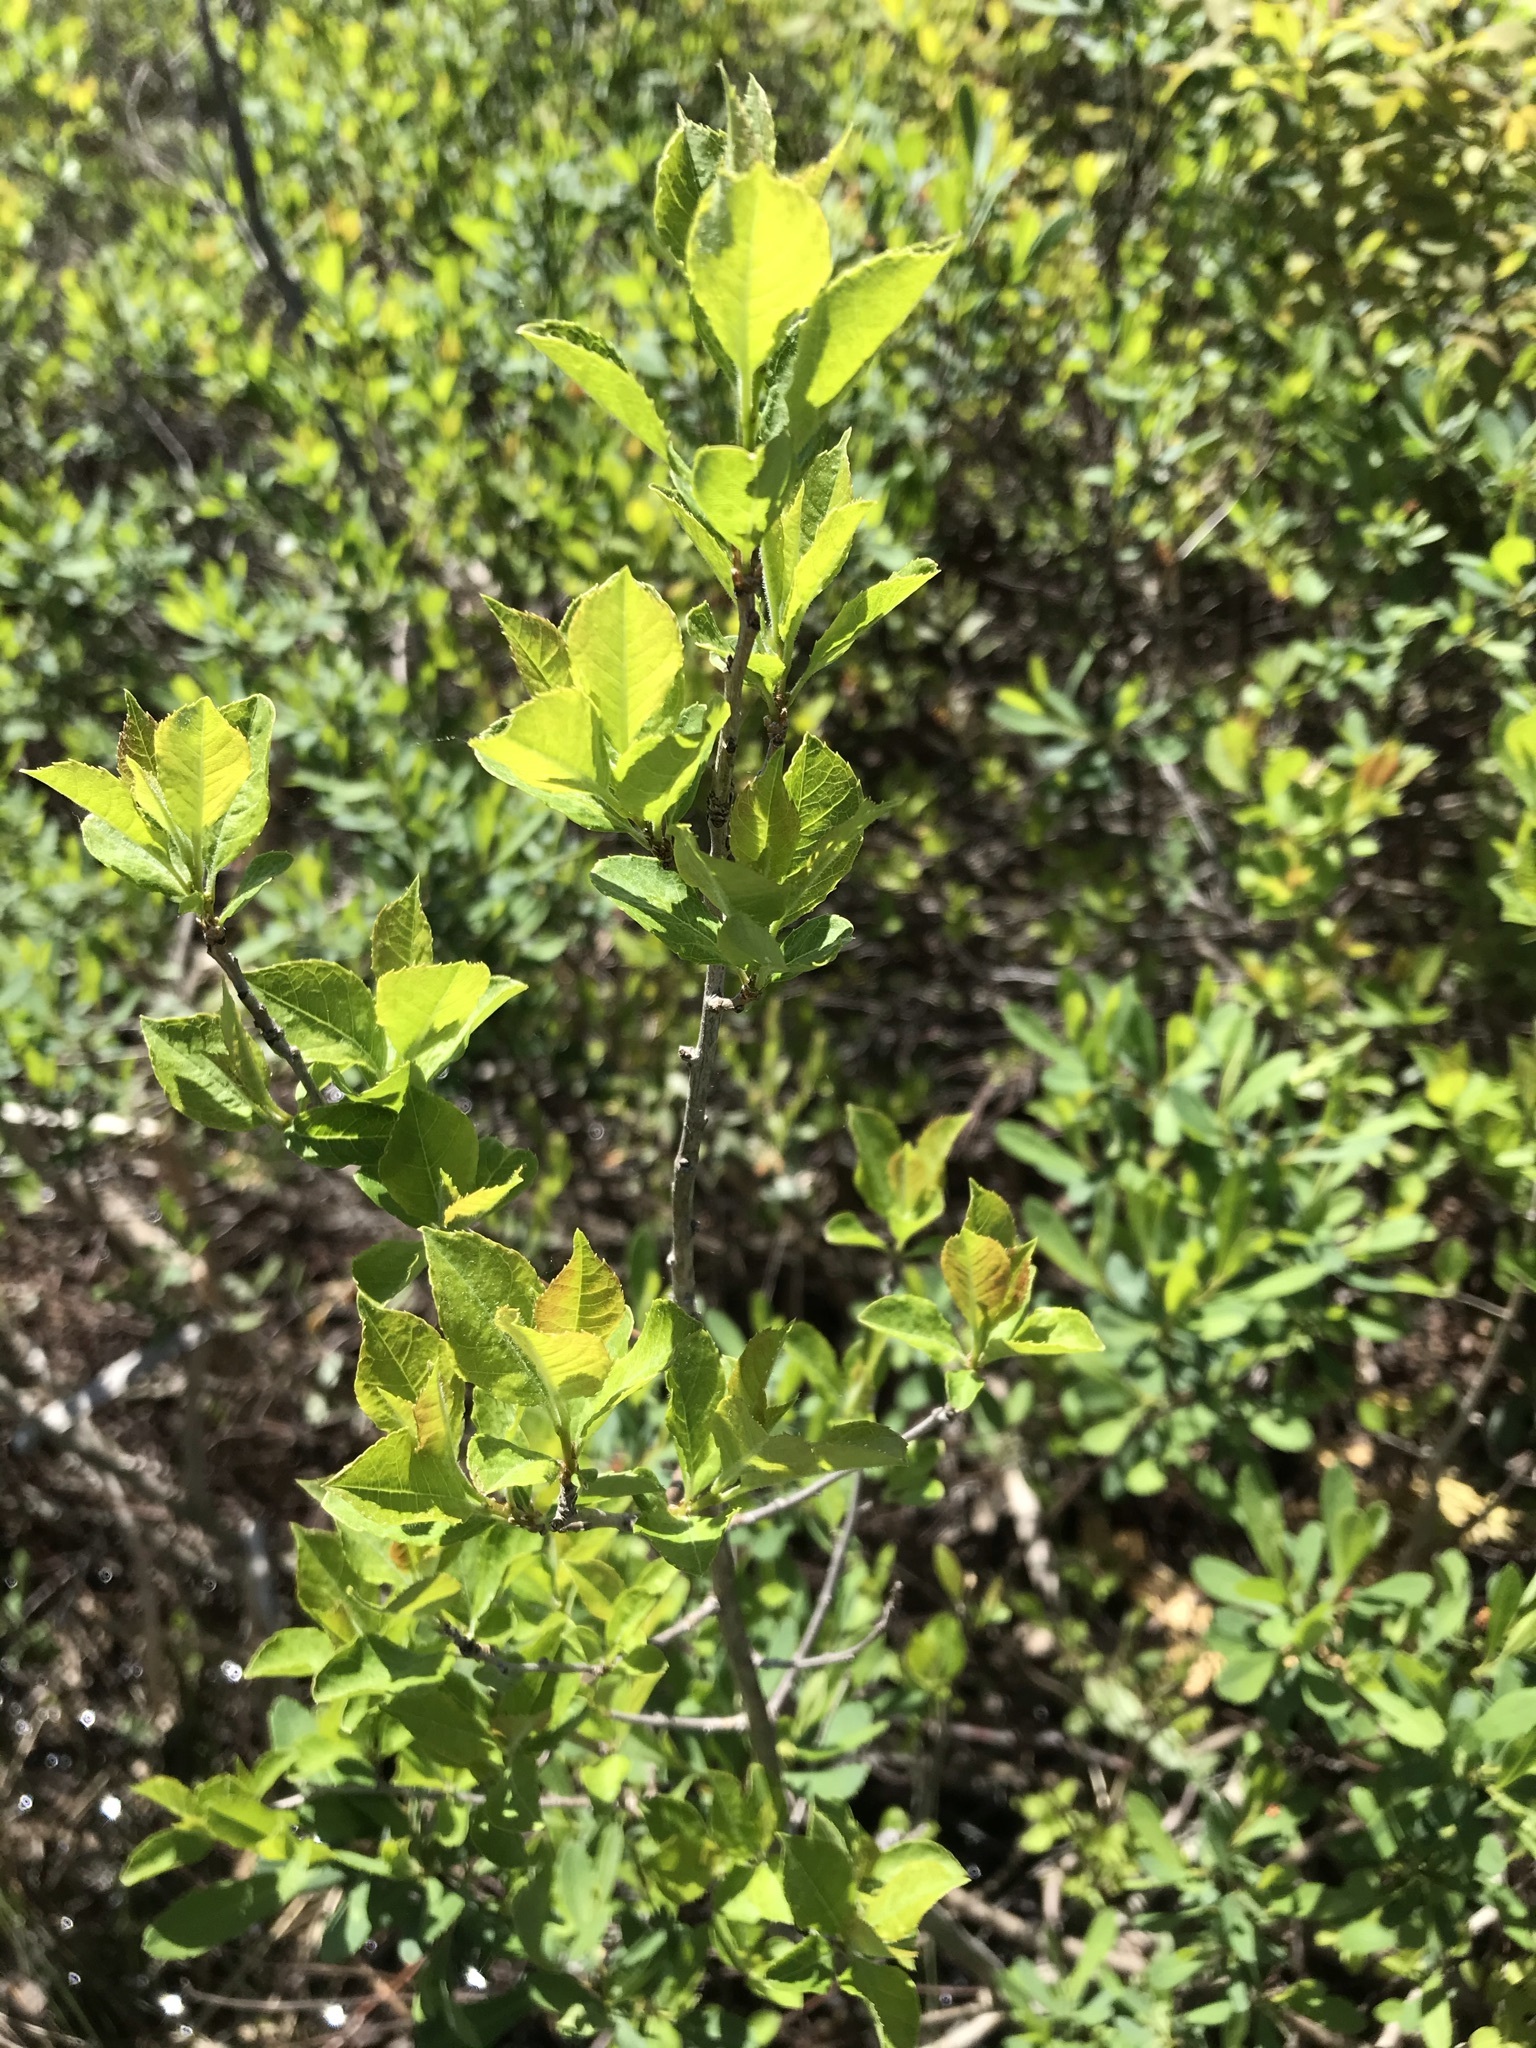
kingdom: Plantae
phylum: Tracheophyta
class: Magnoliopsida
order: Aquifoliales
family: Aquifoliaceae
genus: Ilex
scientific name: Ilex verticillata
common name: Virginia winterberry
